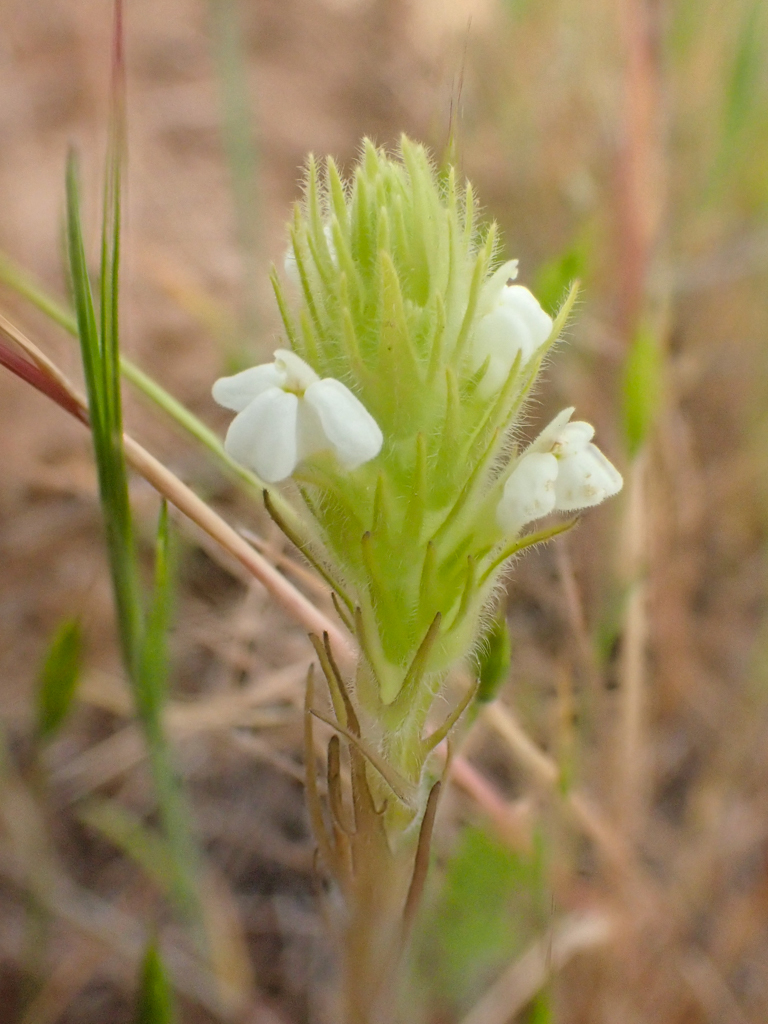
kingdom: Plantae
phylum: Tracheophyta
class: Magnoliopsida
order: Lamiales
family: Orobanchaceae
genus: Castilleja
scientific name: Castilleja tenuis
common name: Hairy indian paintbrush
